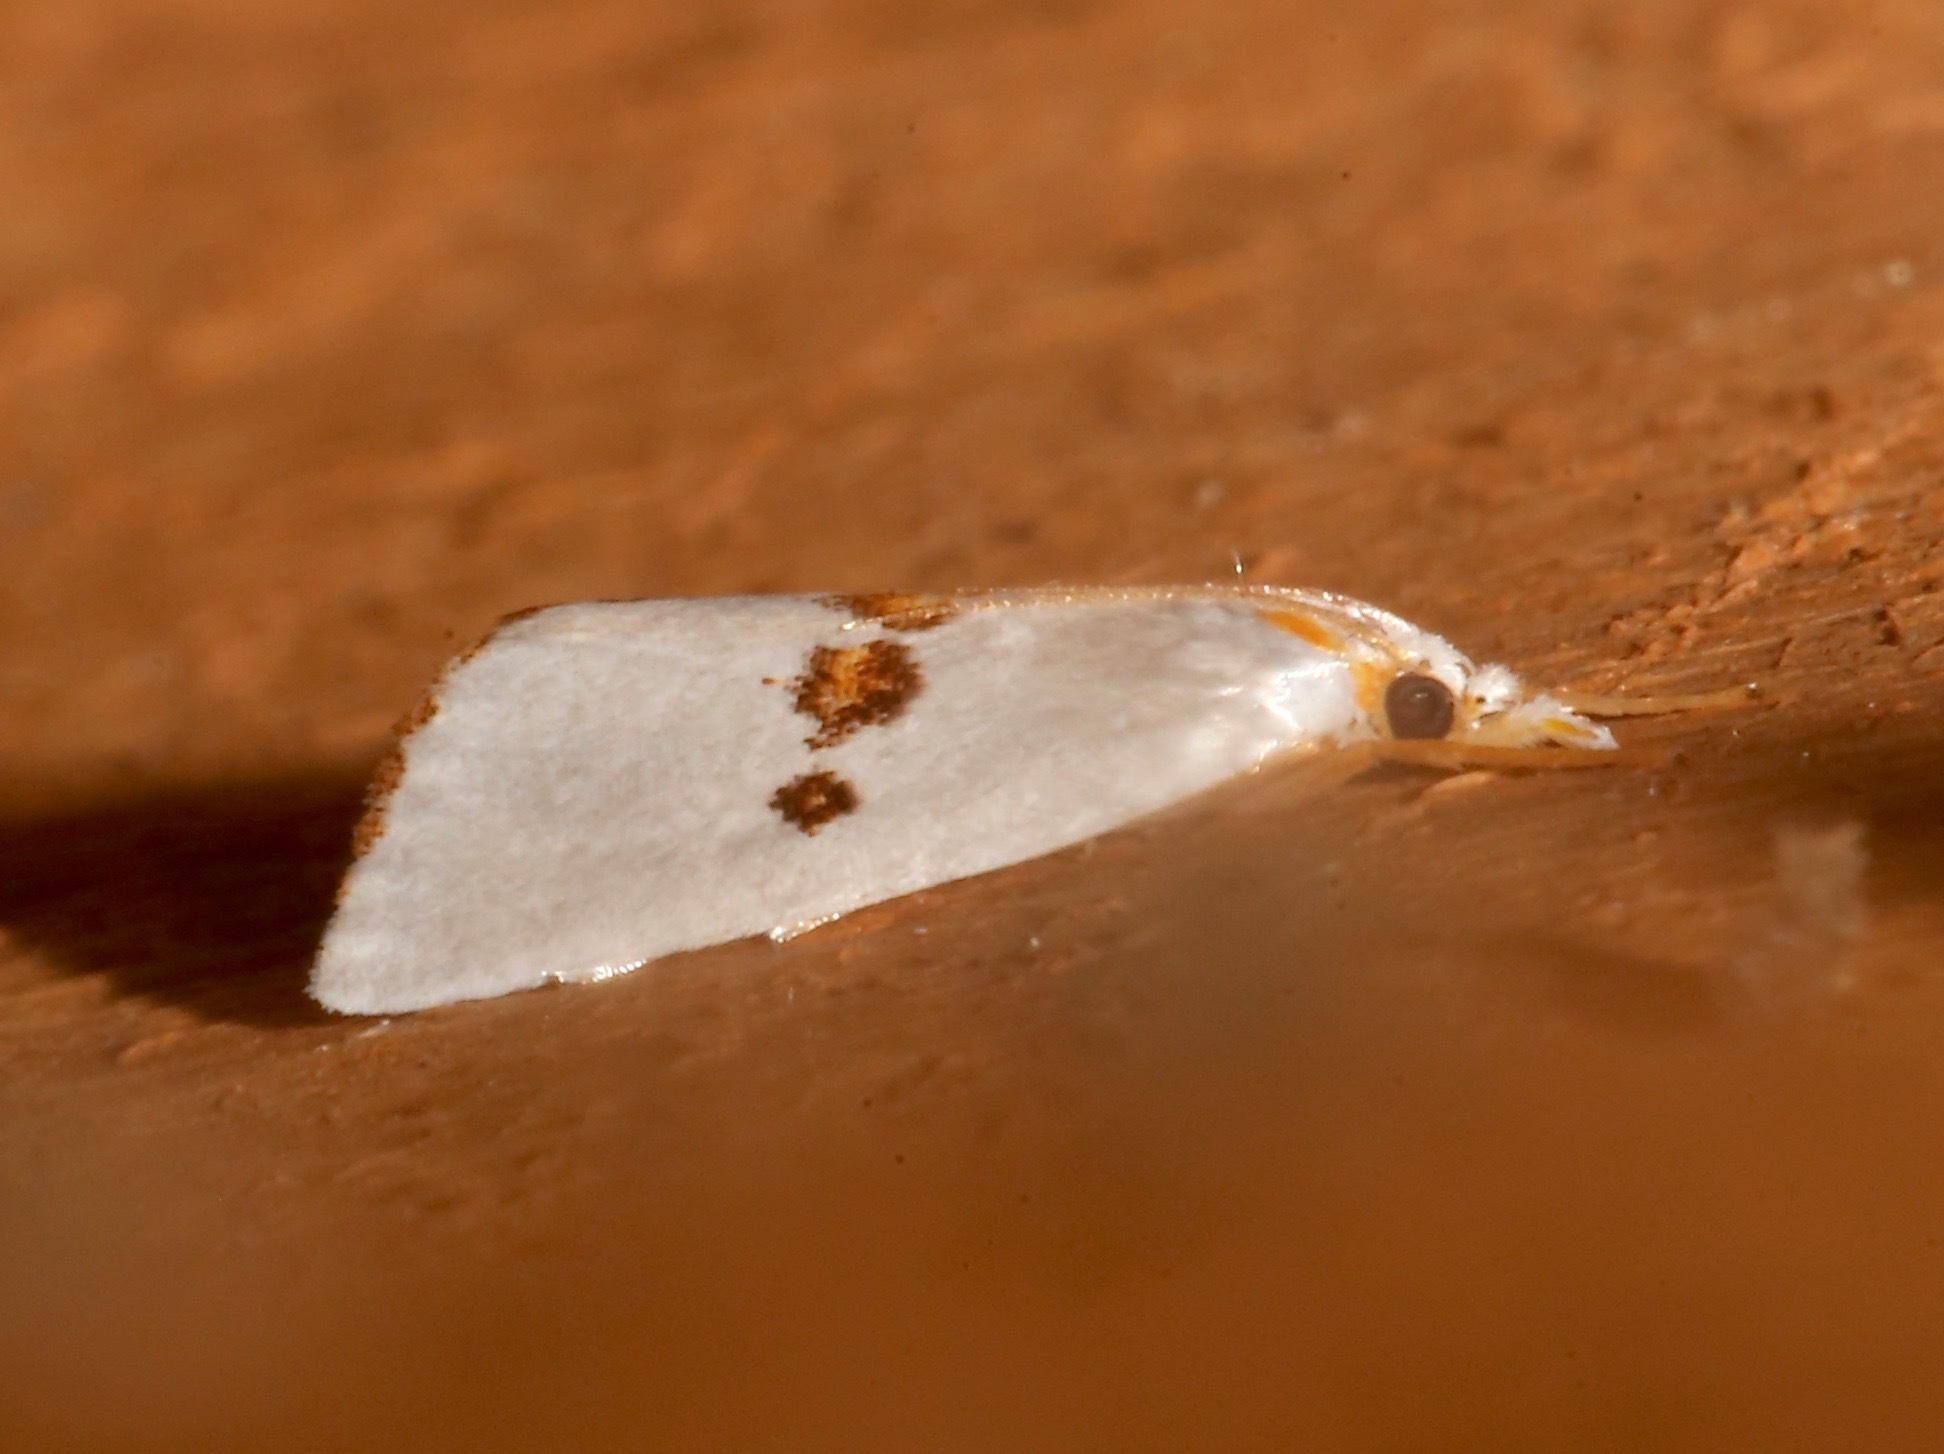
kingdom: Animalia
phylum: Arthropoda
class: Insecta
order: Lepidoptera
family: Crambidae
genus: Crambus
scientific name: Crambus tripsacas
